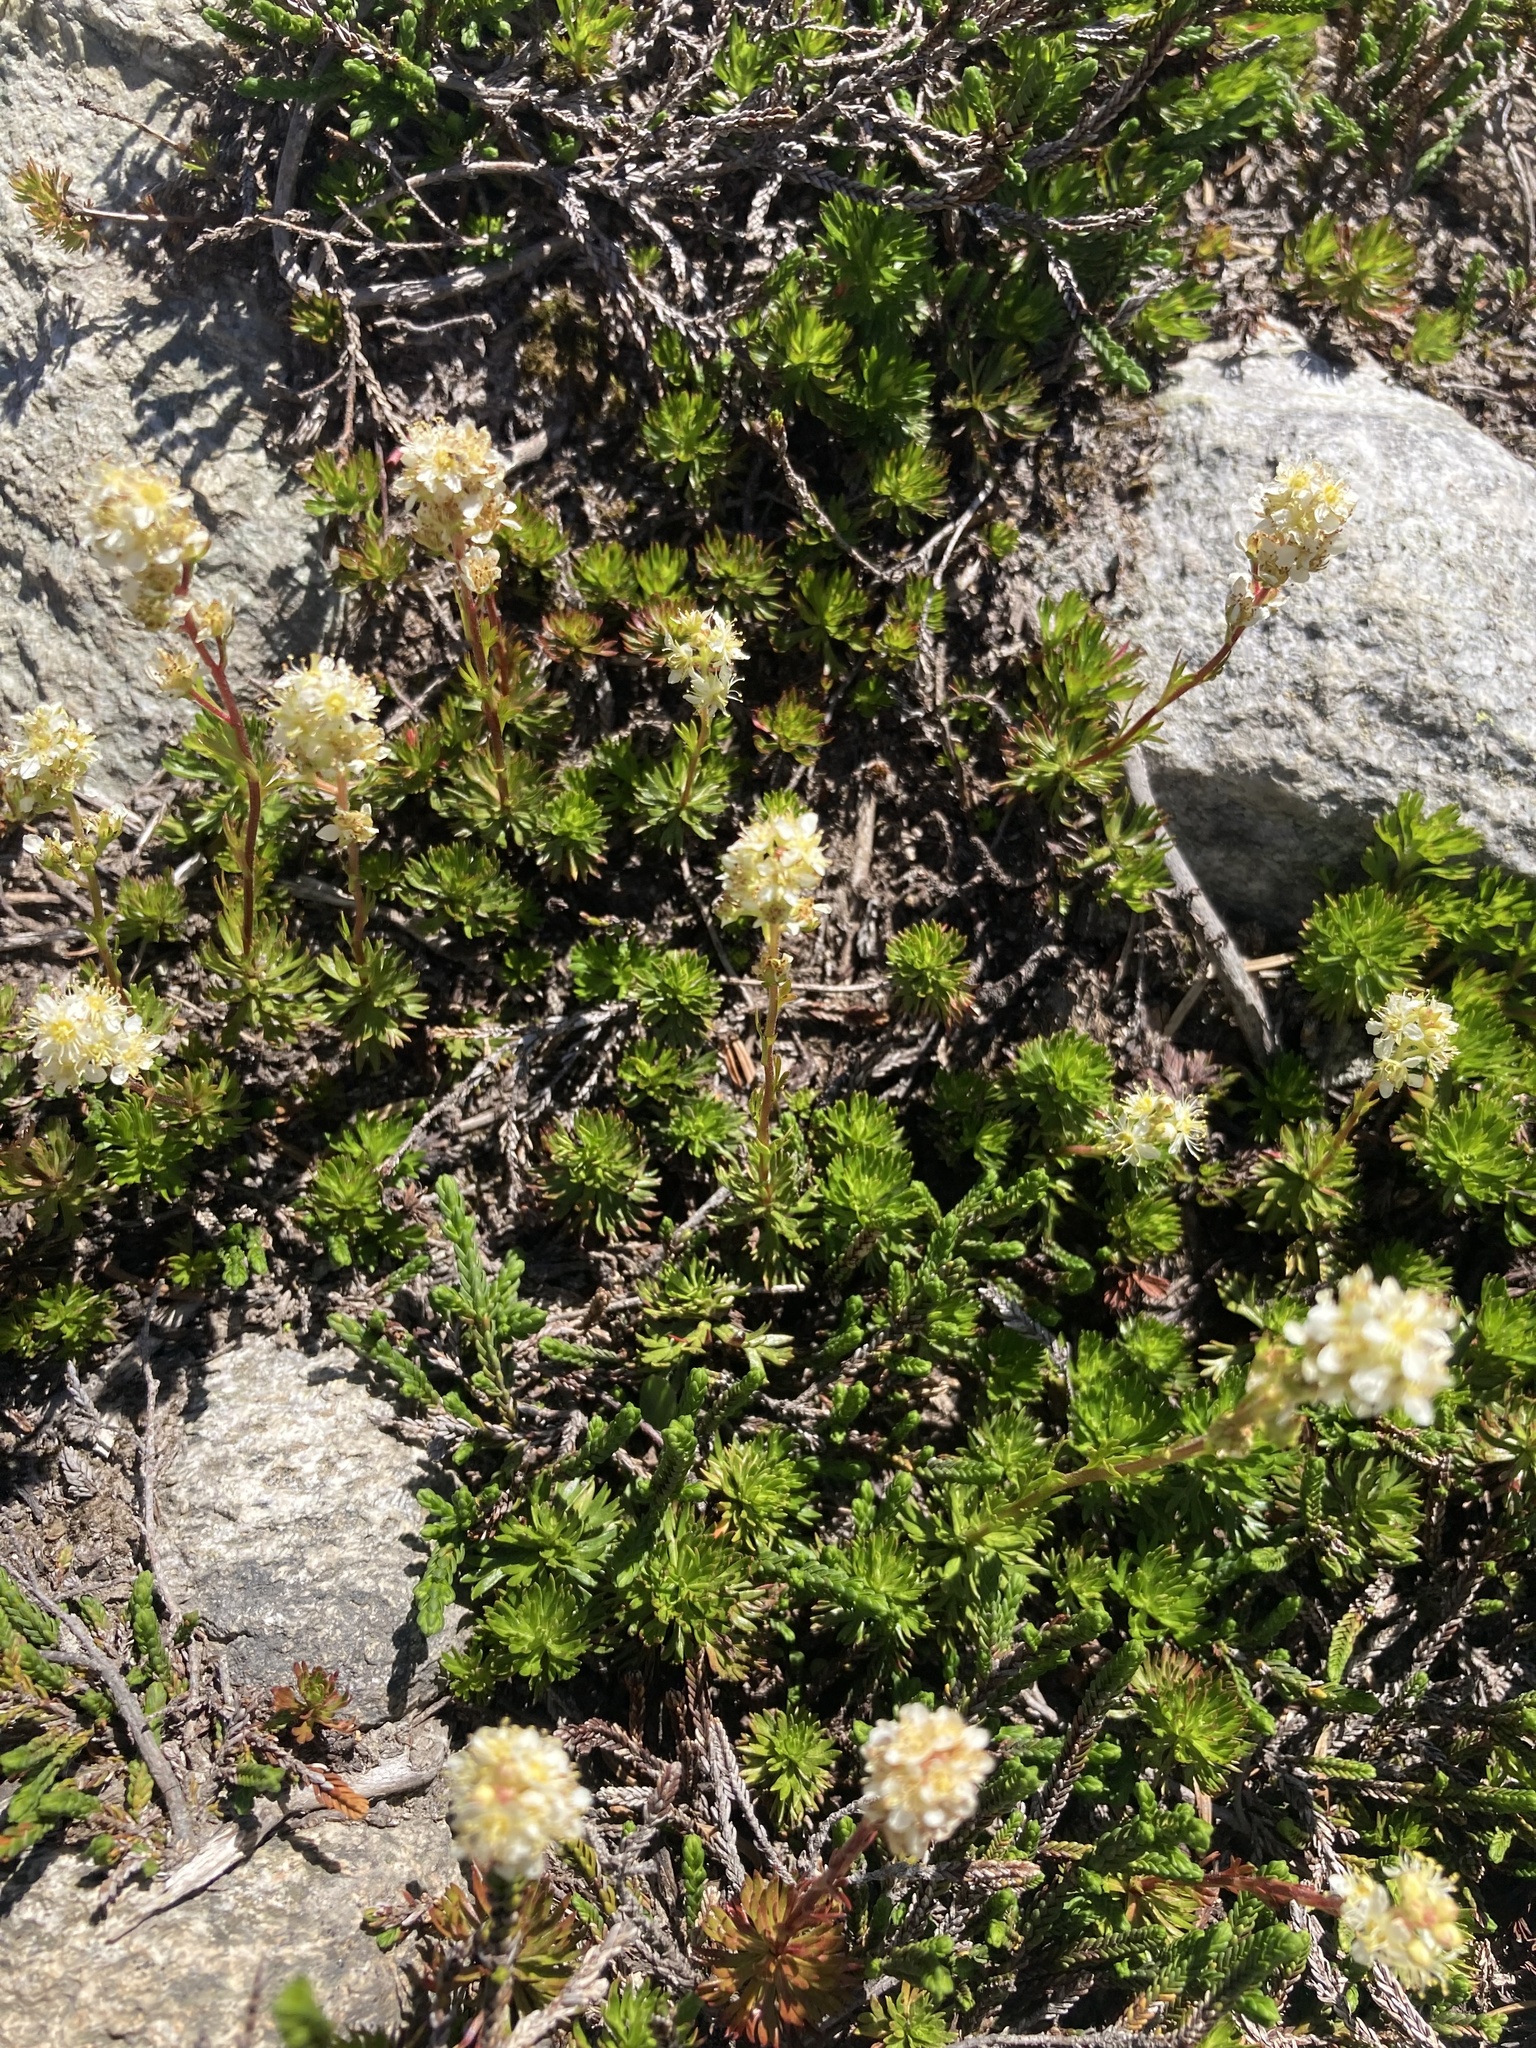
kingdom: Plantae
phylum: Tracheophyta
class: Magnoliopsida
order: Rosales
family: Rosaceae
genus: Luetkea
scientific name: Luetkea pectinata
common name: Partridgefoot
